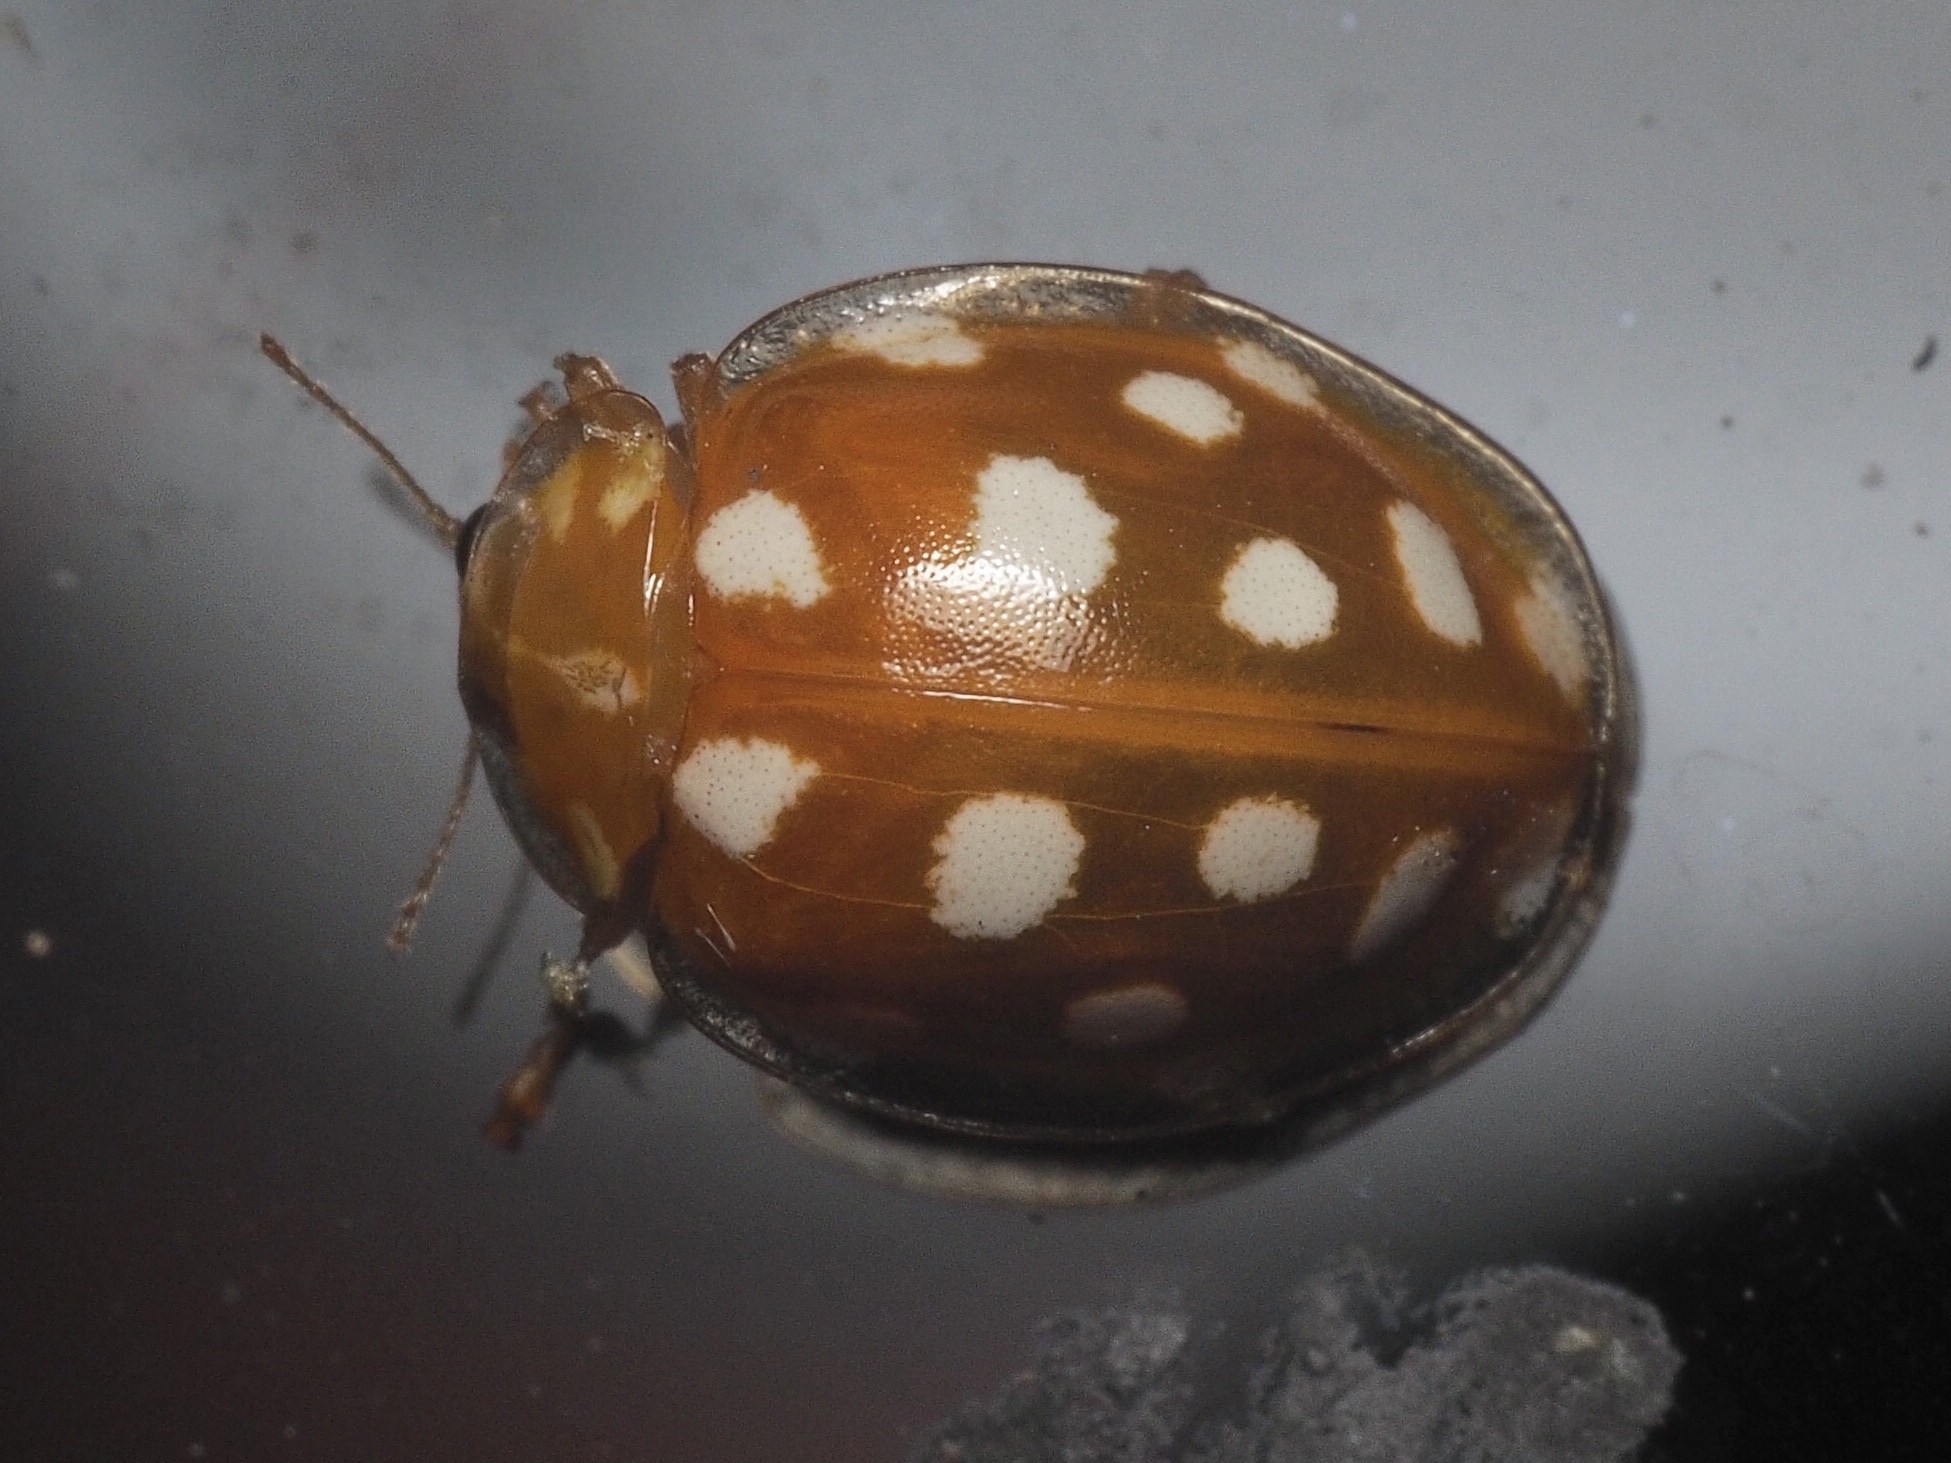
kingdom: Animalia
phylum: Arthropoda
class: Insecta
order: Coleoptera
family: Coccinellidae
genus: Halyzia
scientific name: Halyzia sedecimguttata
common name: Orange ladybird
